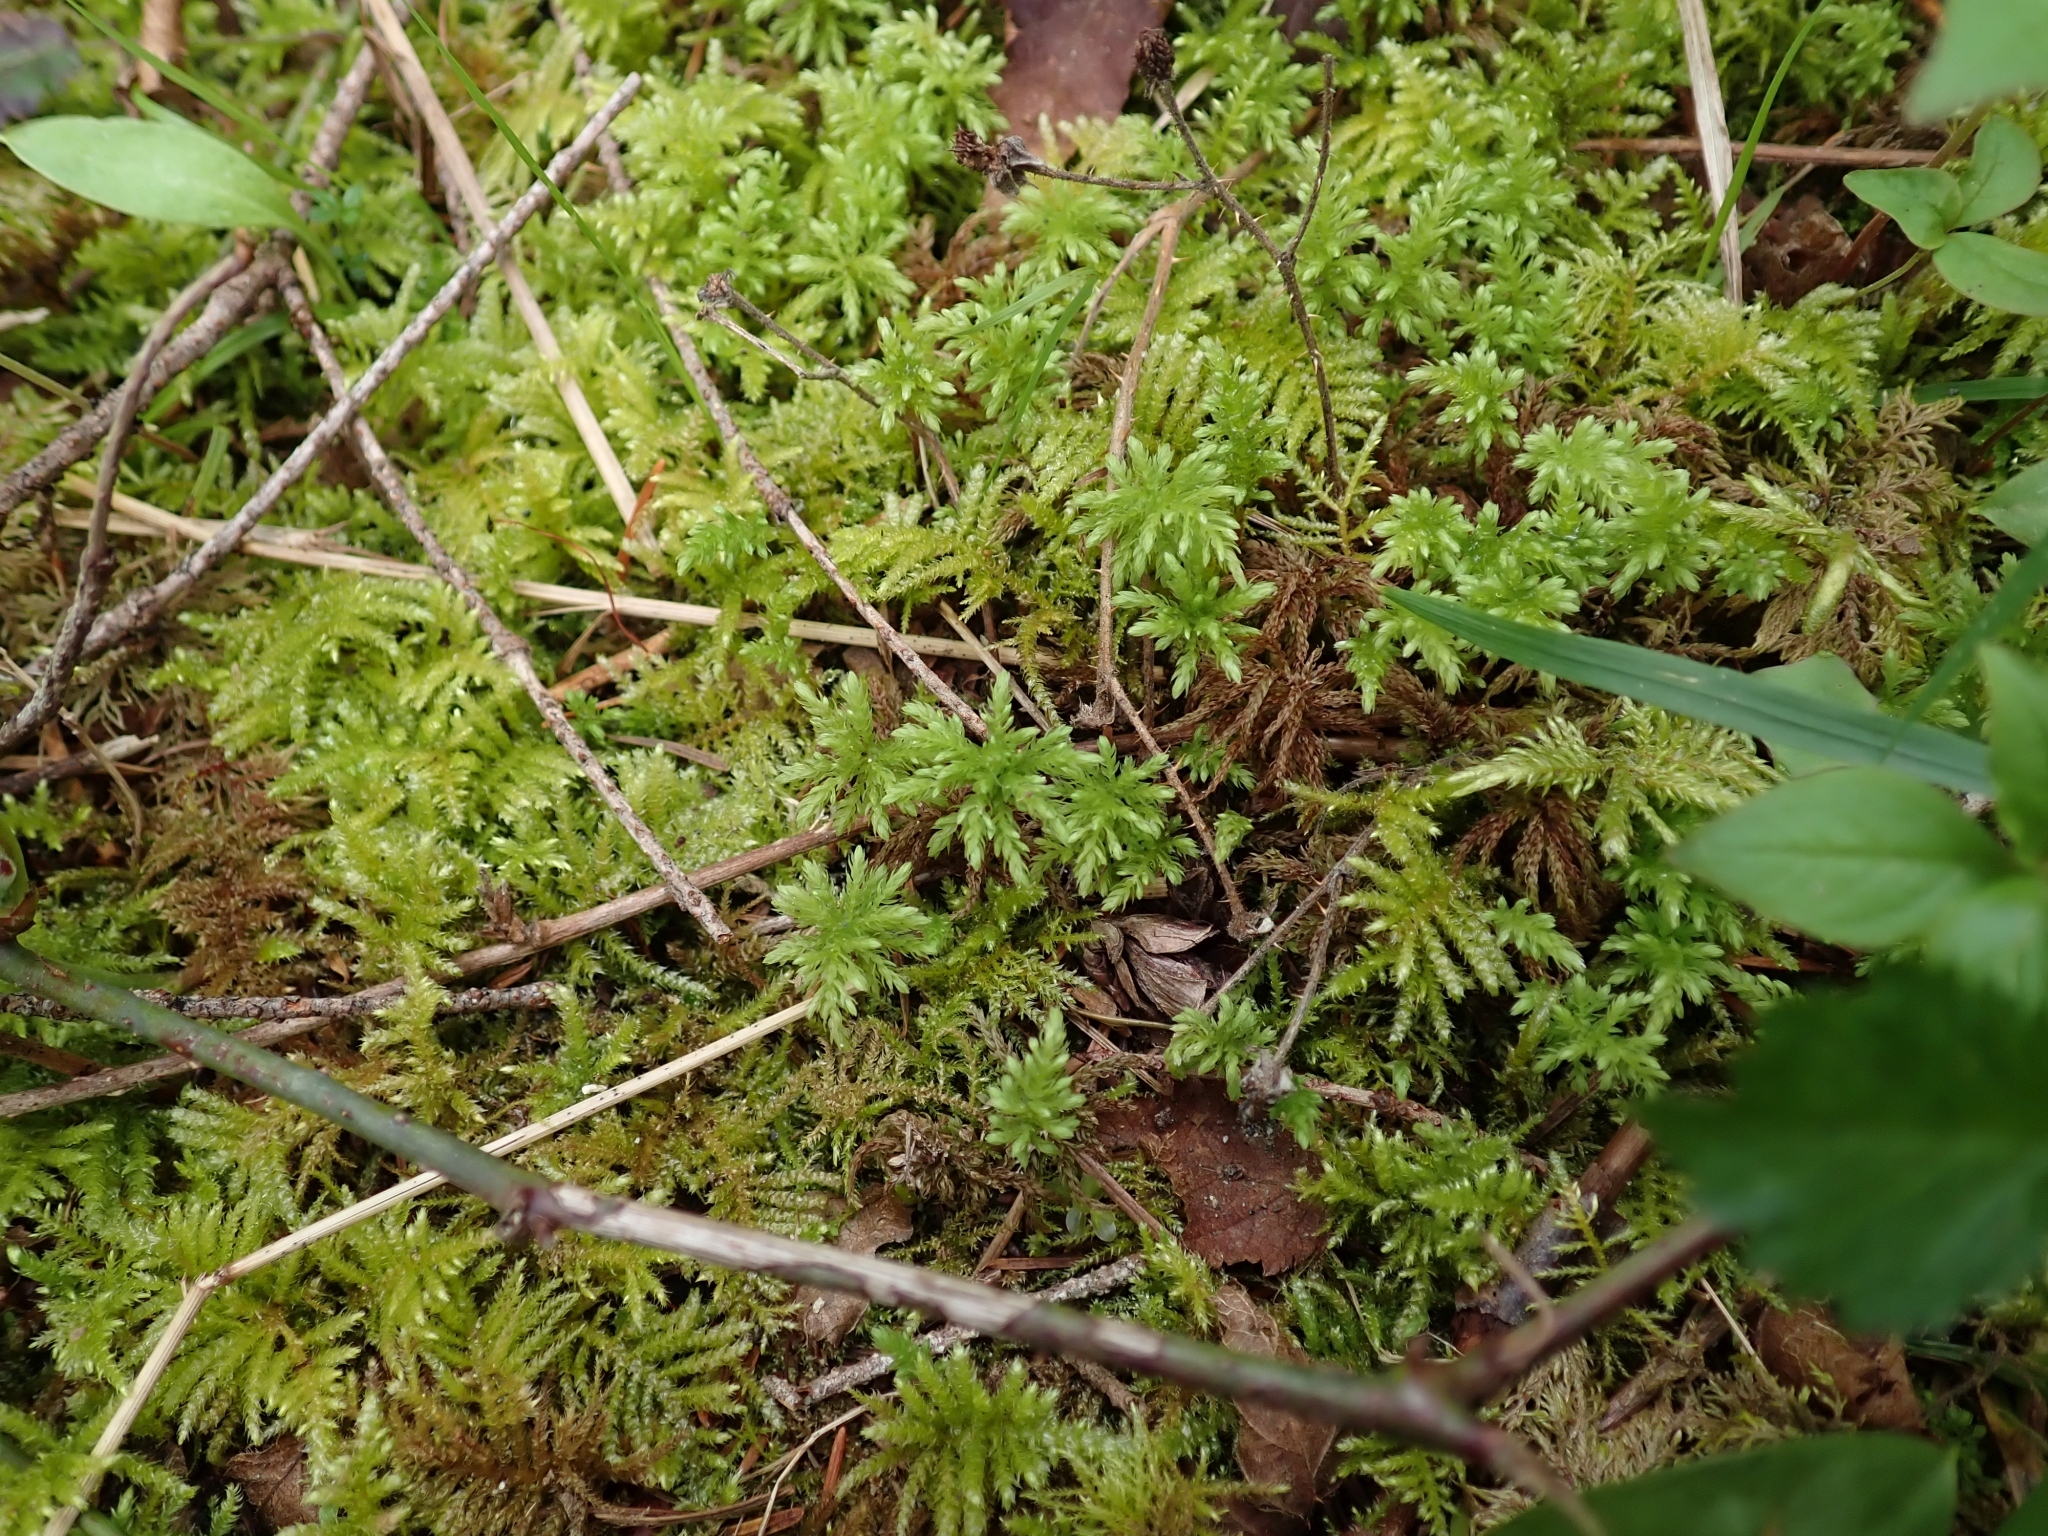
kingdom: Plantae
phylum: Bryophyta
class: Bryopsida
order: Bryales
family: Mniaceae
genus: Leucolepis
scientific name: Leucolepis acanthoneura
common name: Leucolepis umbrella moss
